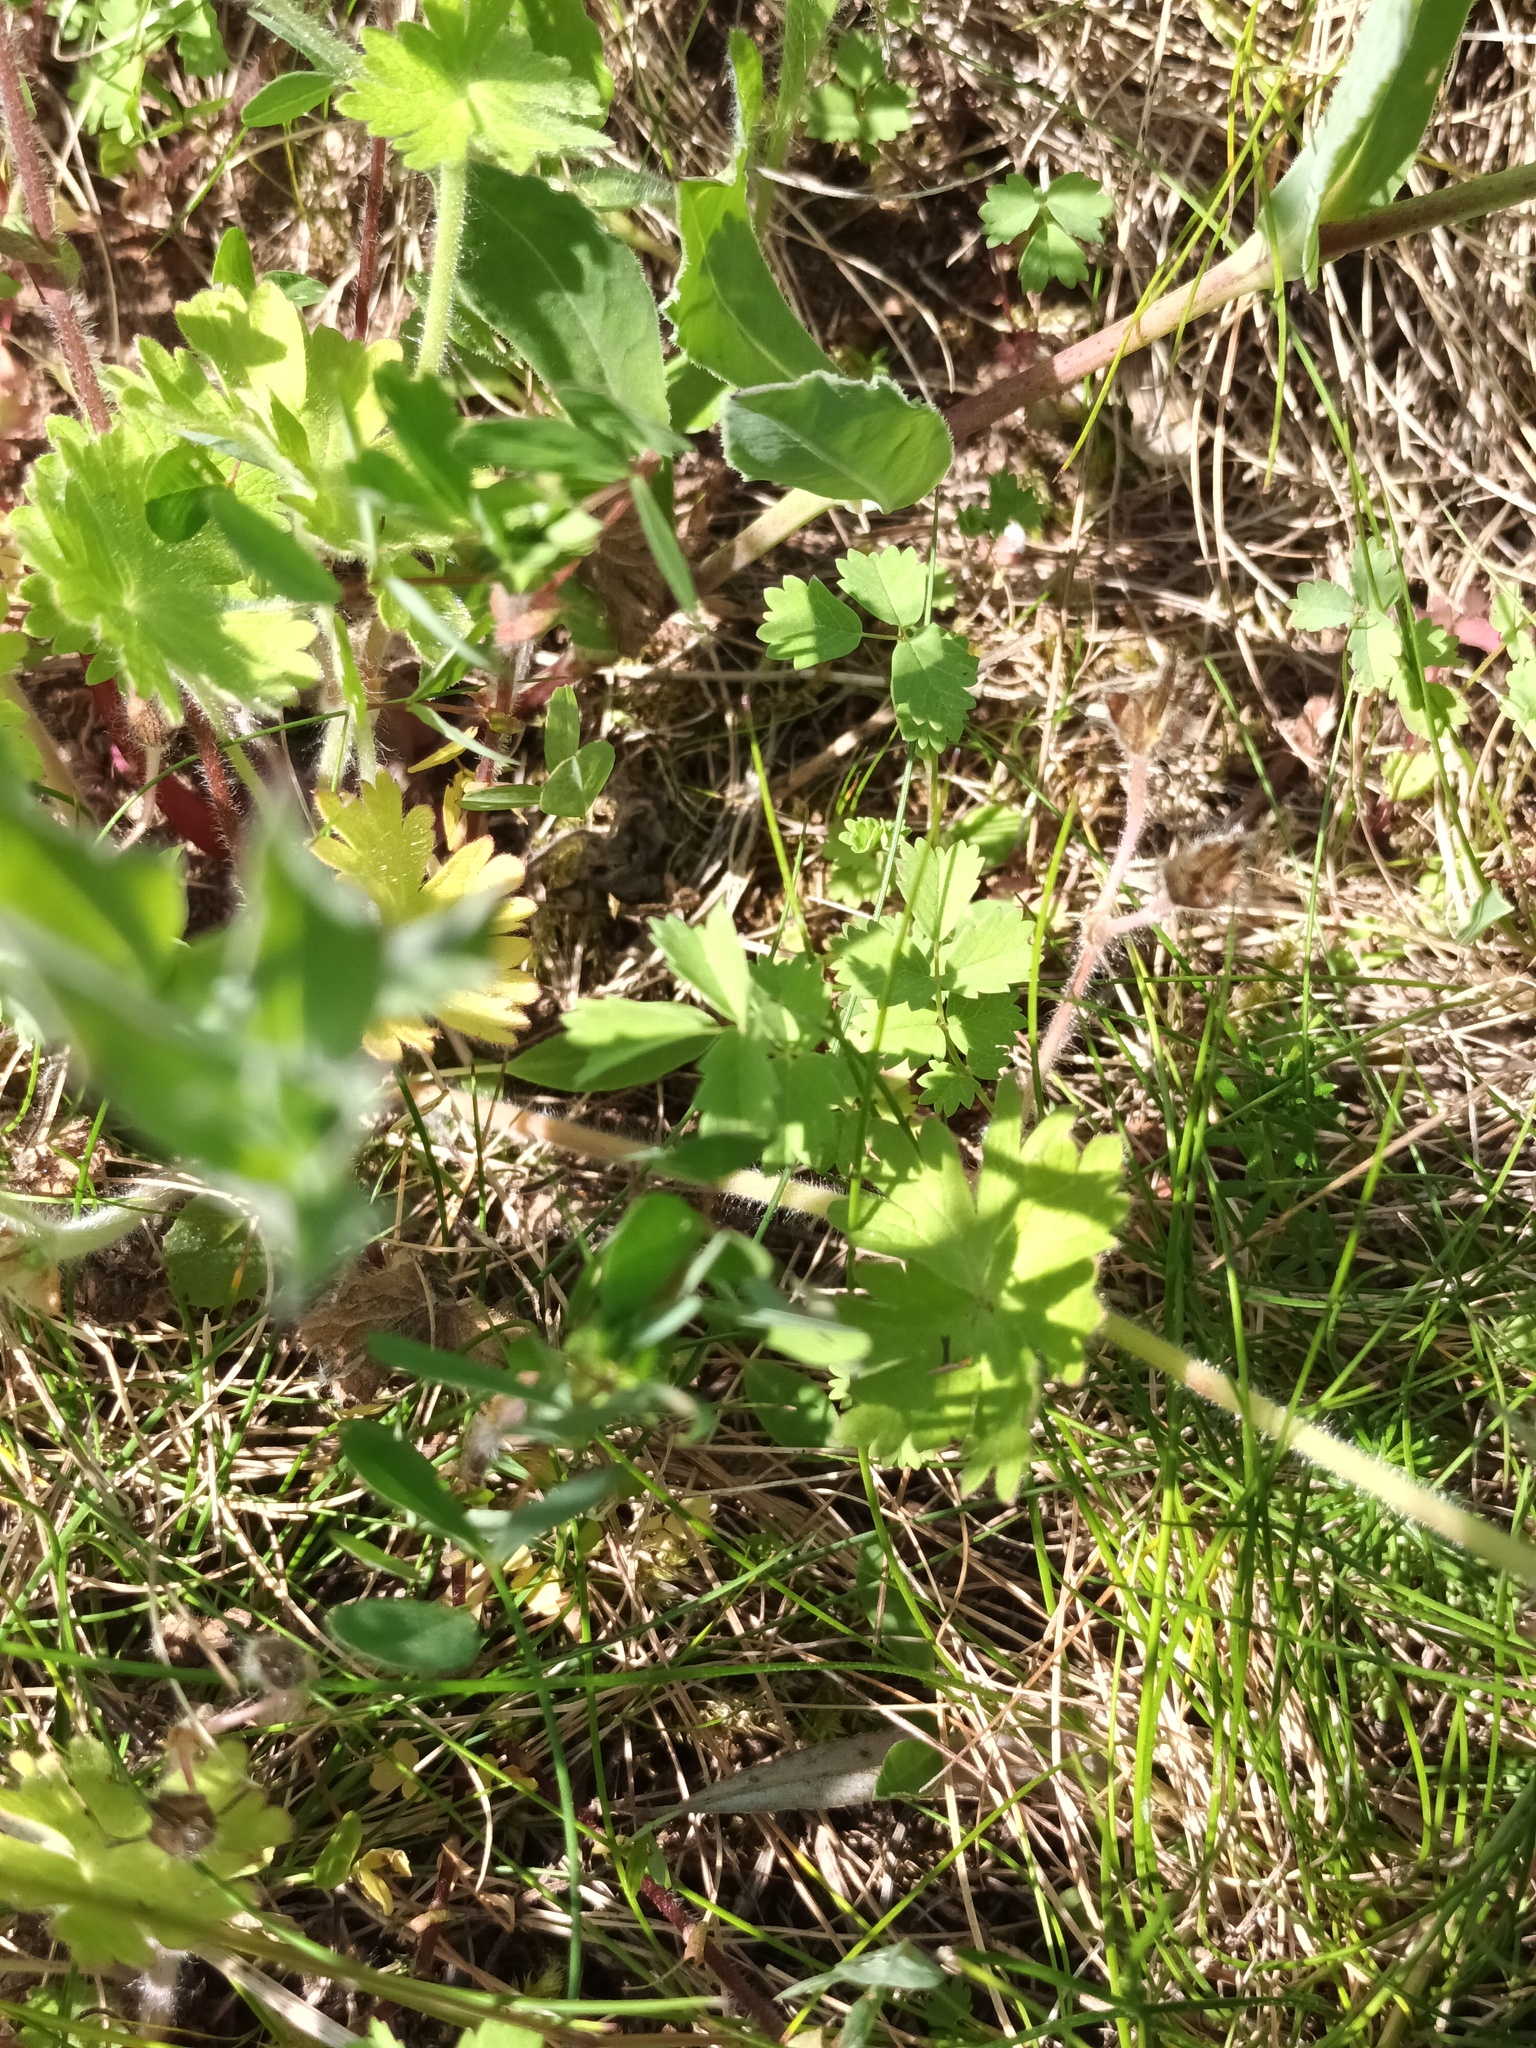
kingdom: Plantae
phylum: Tracheophyta
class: Magnoliopsida
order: Geraniales
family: Geraniaceae
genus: Geranium
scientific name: Geranium molle
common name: Dove's-foot crane's-bill
